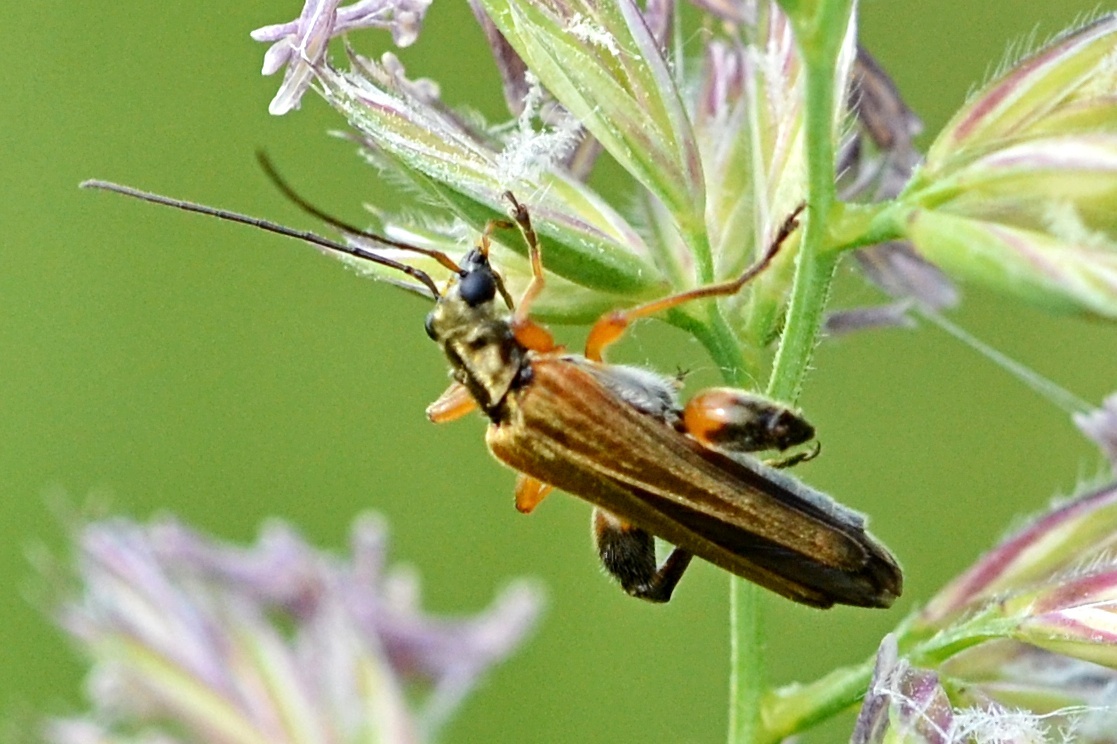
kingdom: Animalia
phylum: Arthropoda
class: Insecta
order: Coleoptera
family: Oedemeridae
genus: Oedemera
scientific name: Oedemera podagrariae
